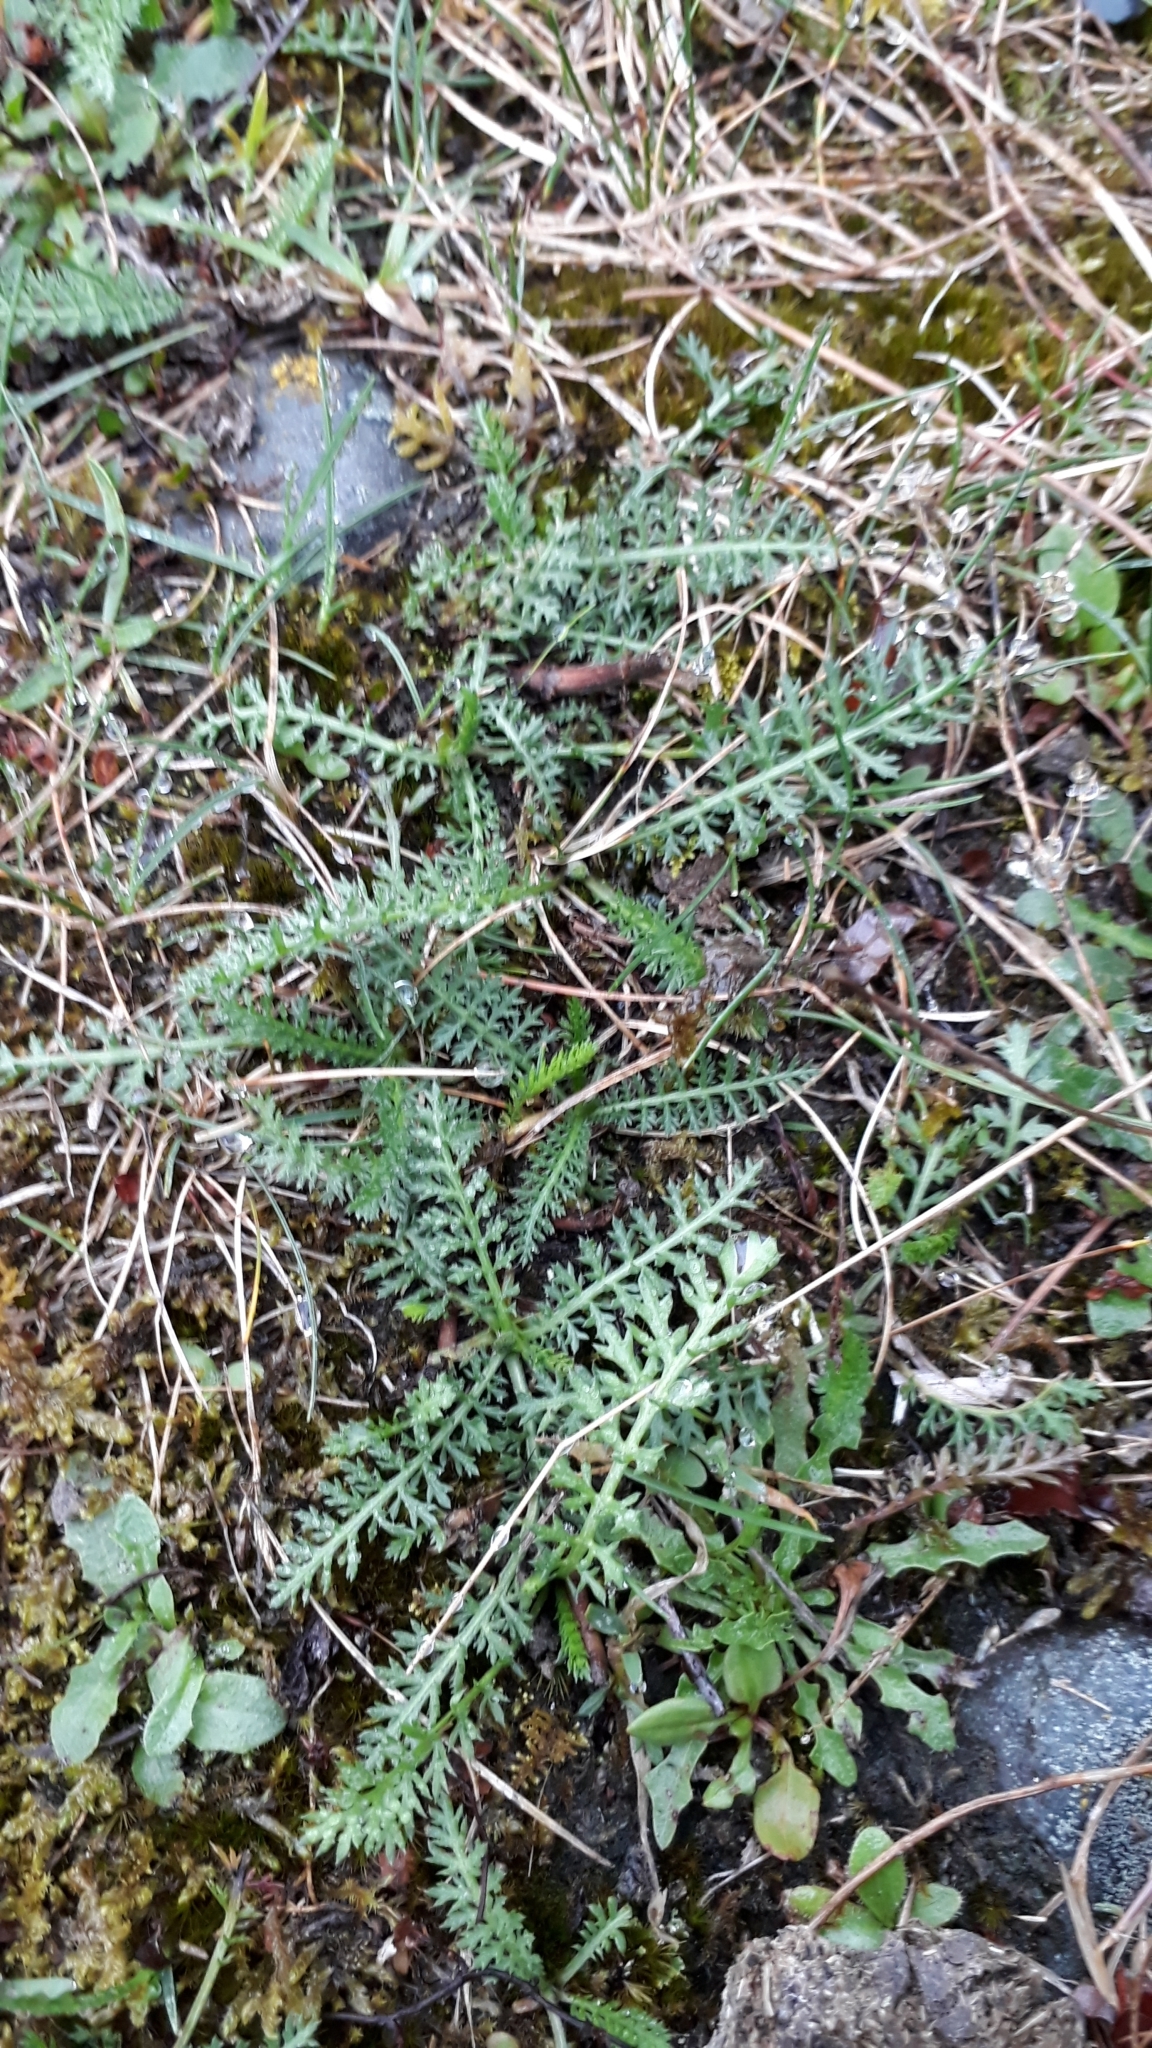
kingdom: Plantae
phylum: Tracheophyta
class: Magnoliopsida
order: Asterales
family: Asteraceae
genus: Achillea
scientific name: Achillea millefolium
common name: Yarrow
